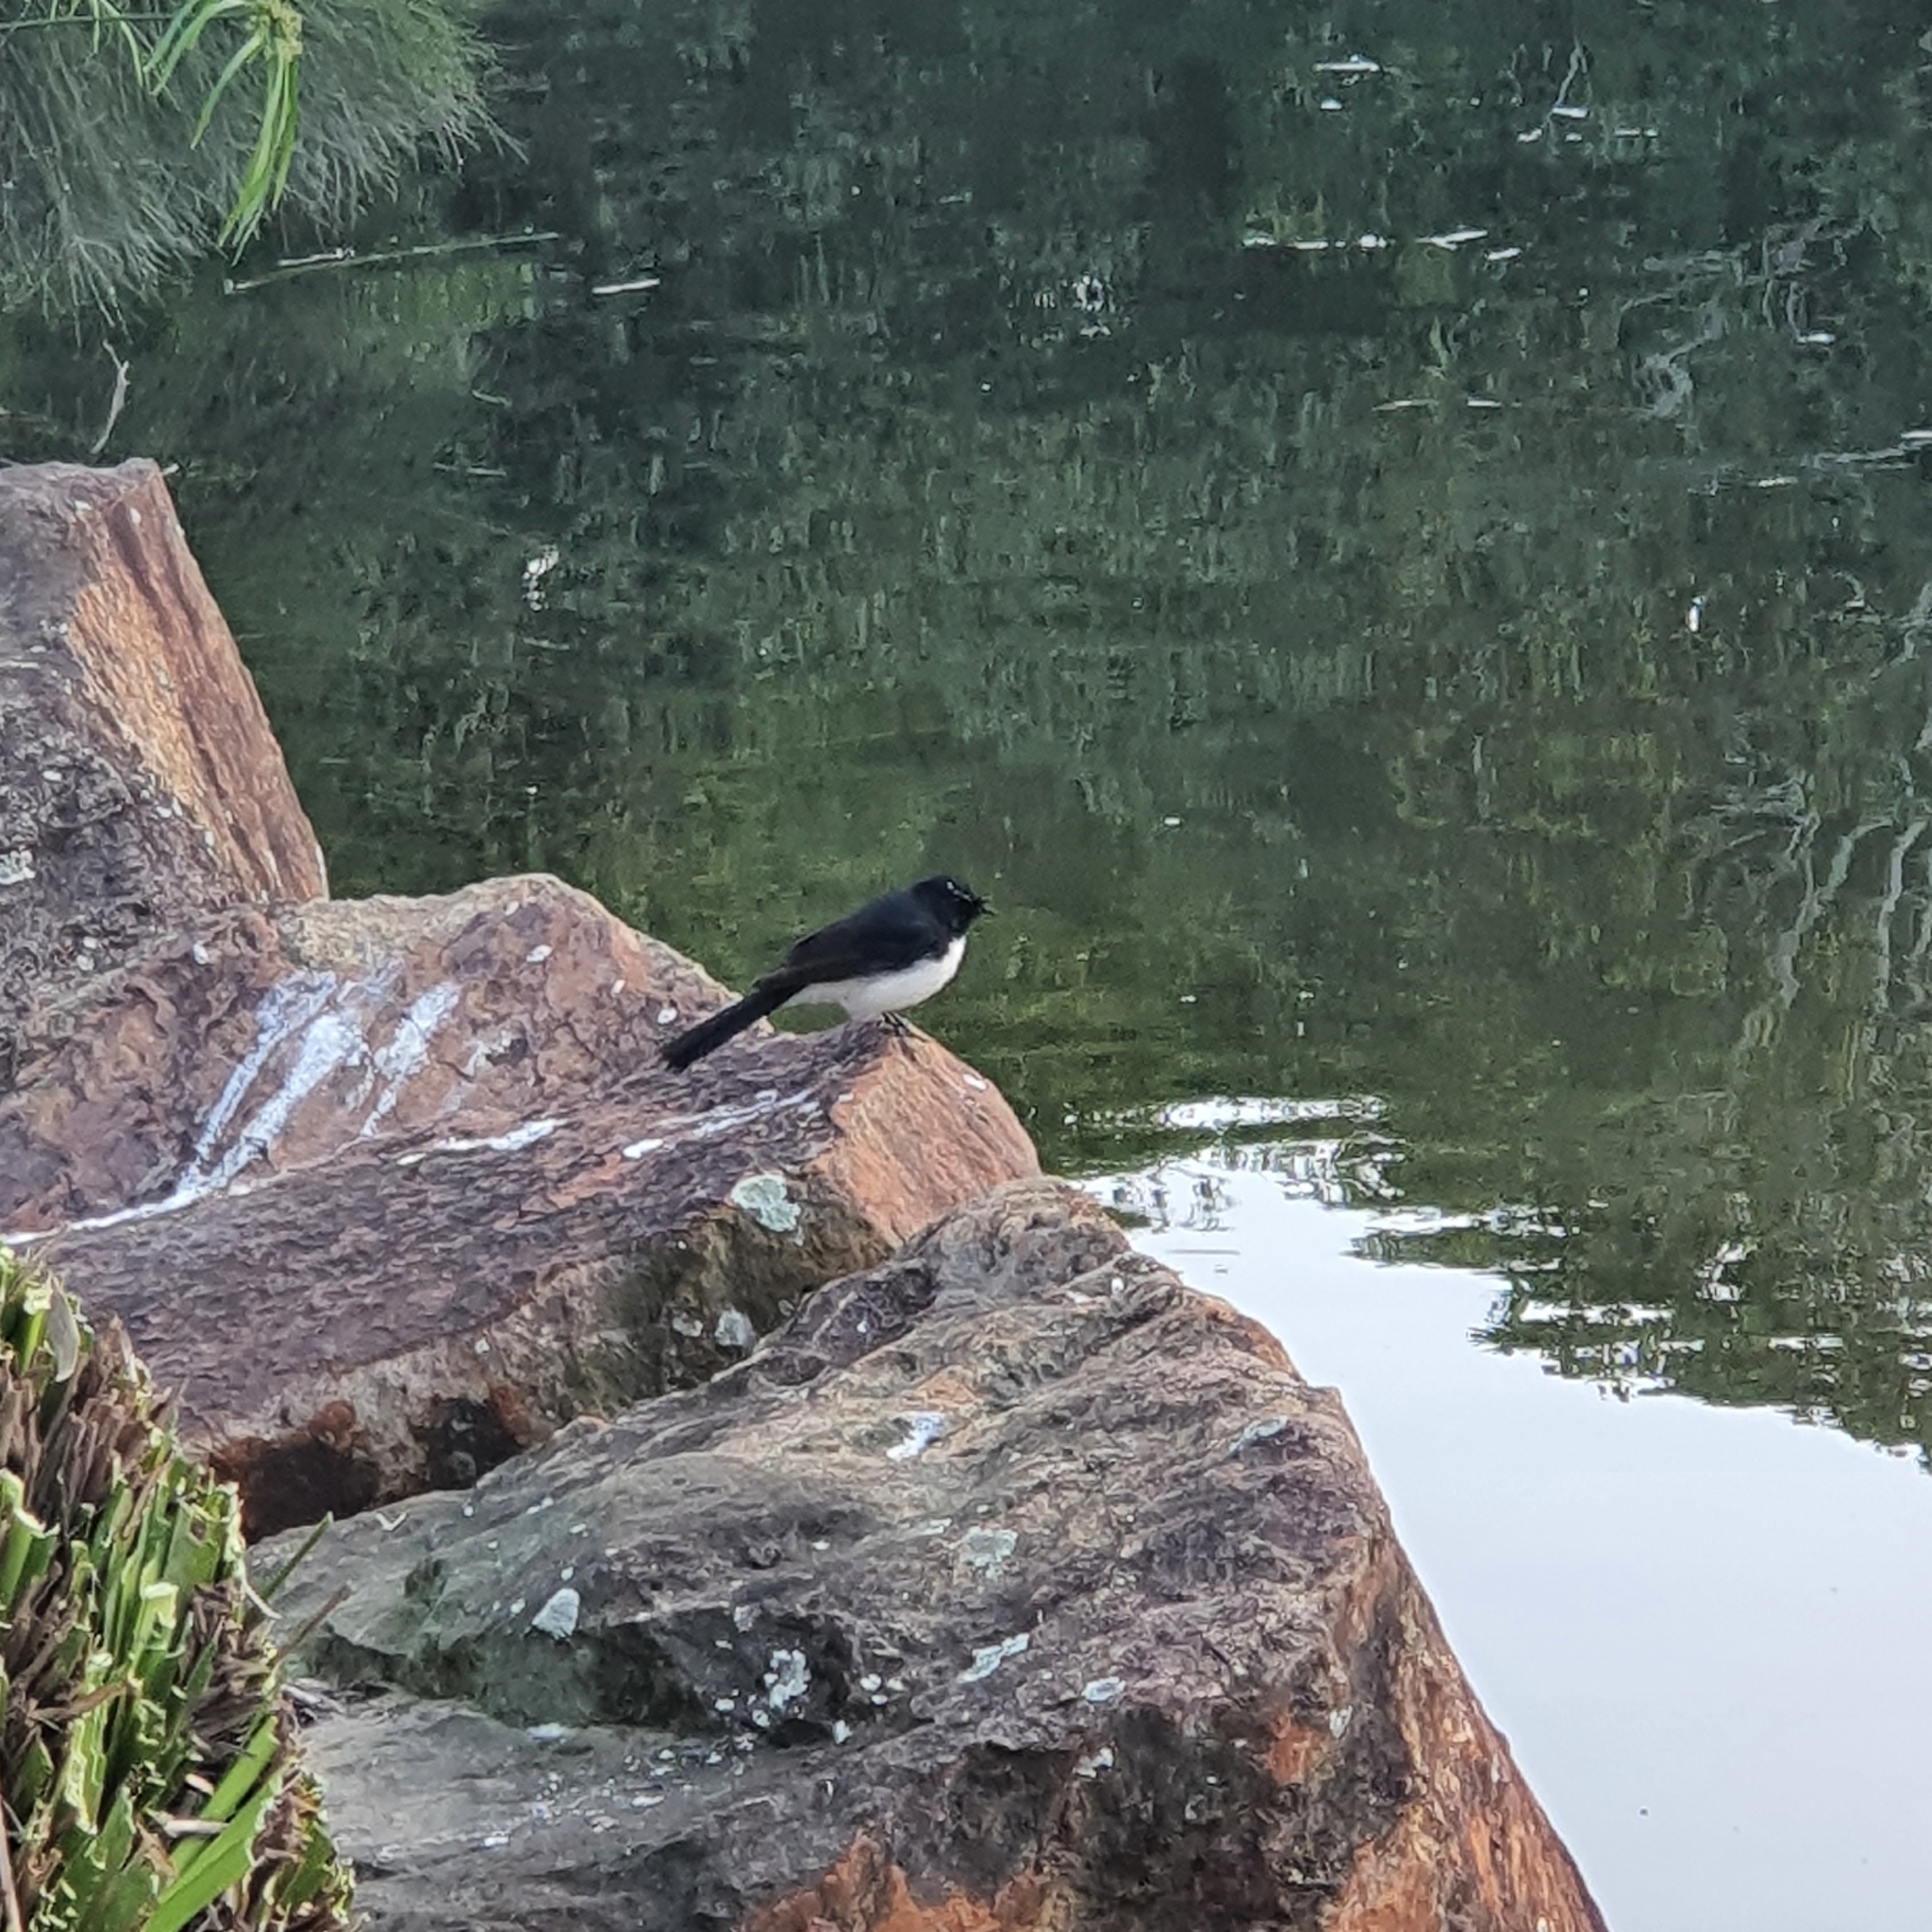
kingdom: Animalia
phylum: Chordata
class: Aves
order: Passeriformes
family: Rhipiduridae
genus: Rhipidura
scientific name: Rhipidura leucophrys
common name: Willie wagtail
